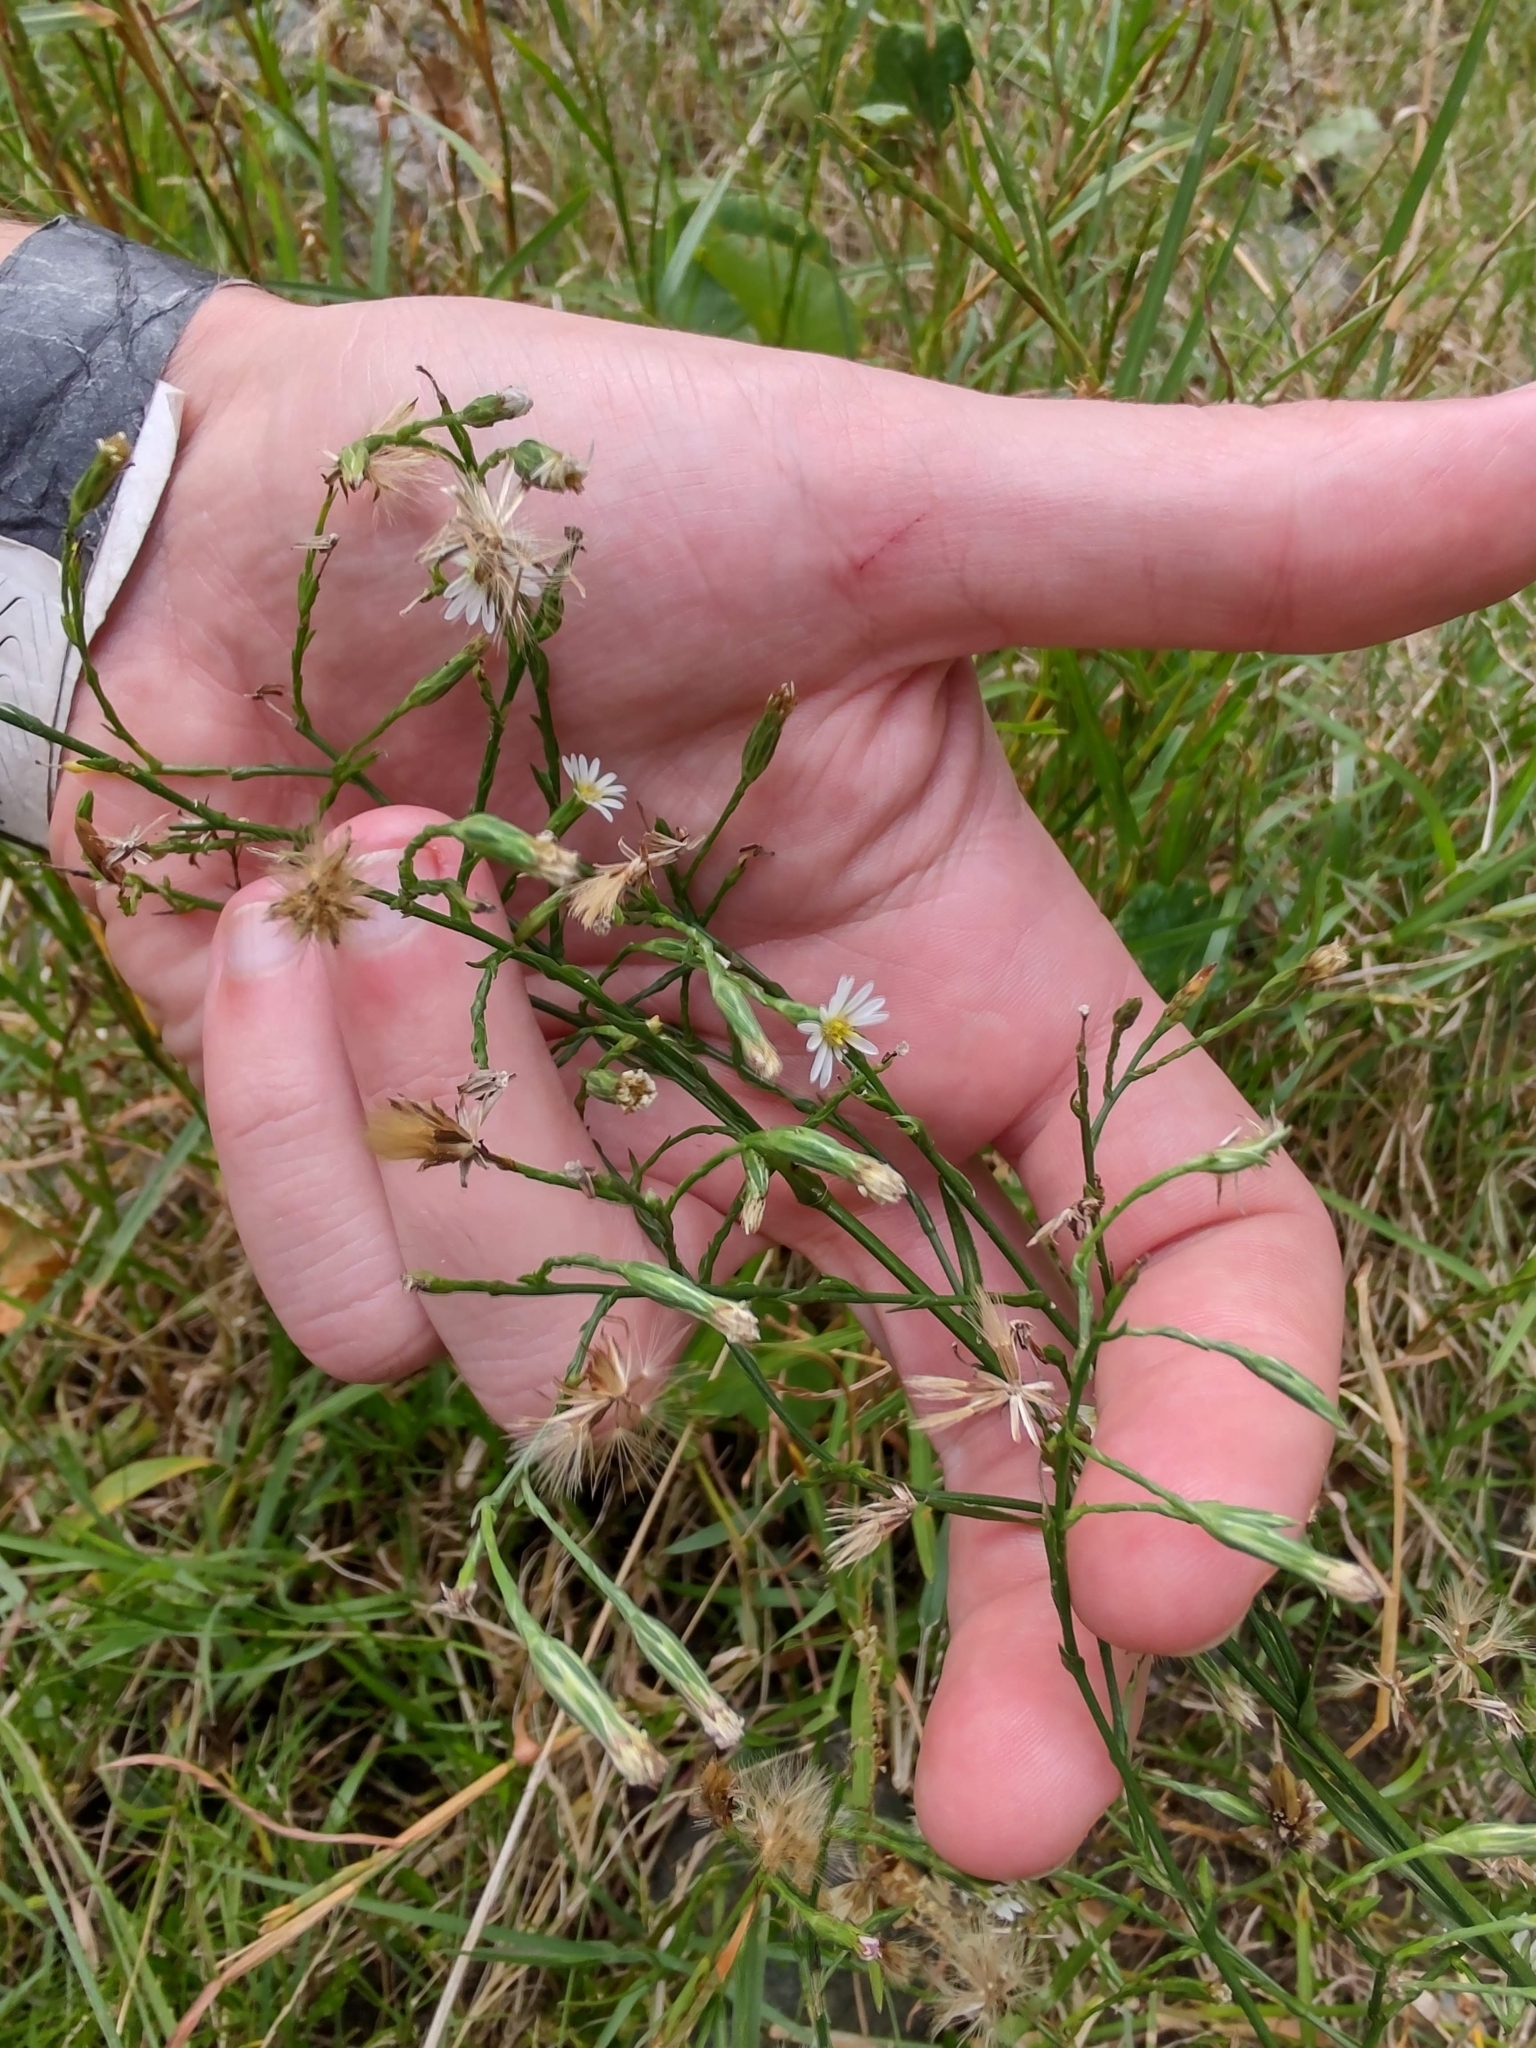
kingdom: Plantae
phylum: Tracheophyta
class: Magnoliopsida
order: Asterales
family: Asteraceae
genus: Symphyotrichum
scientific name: Symphyotrichum squamatum
